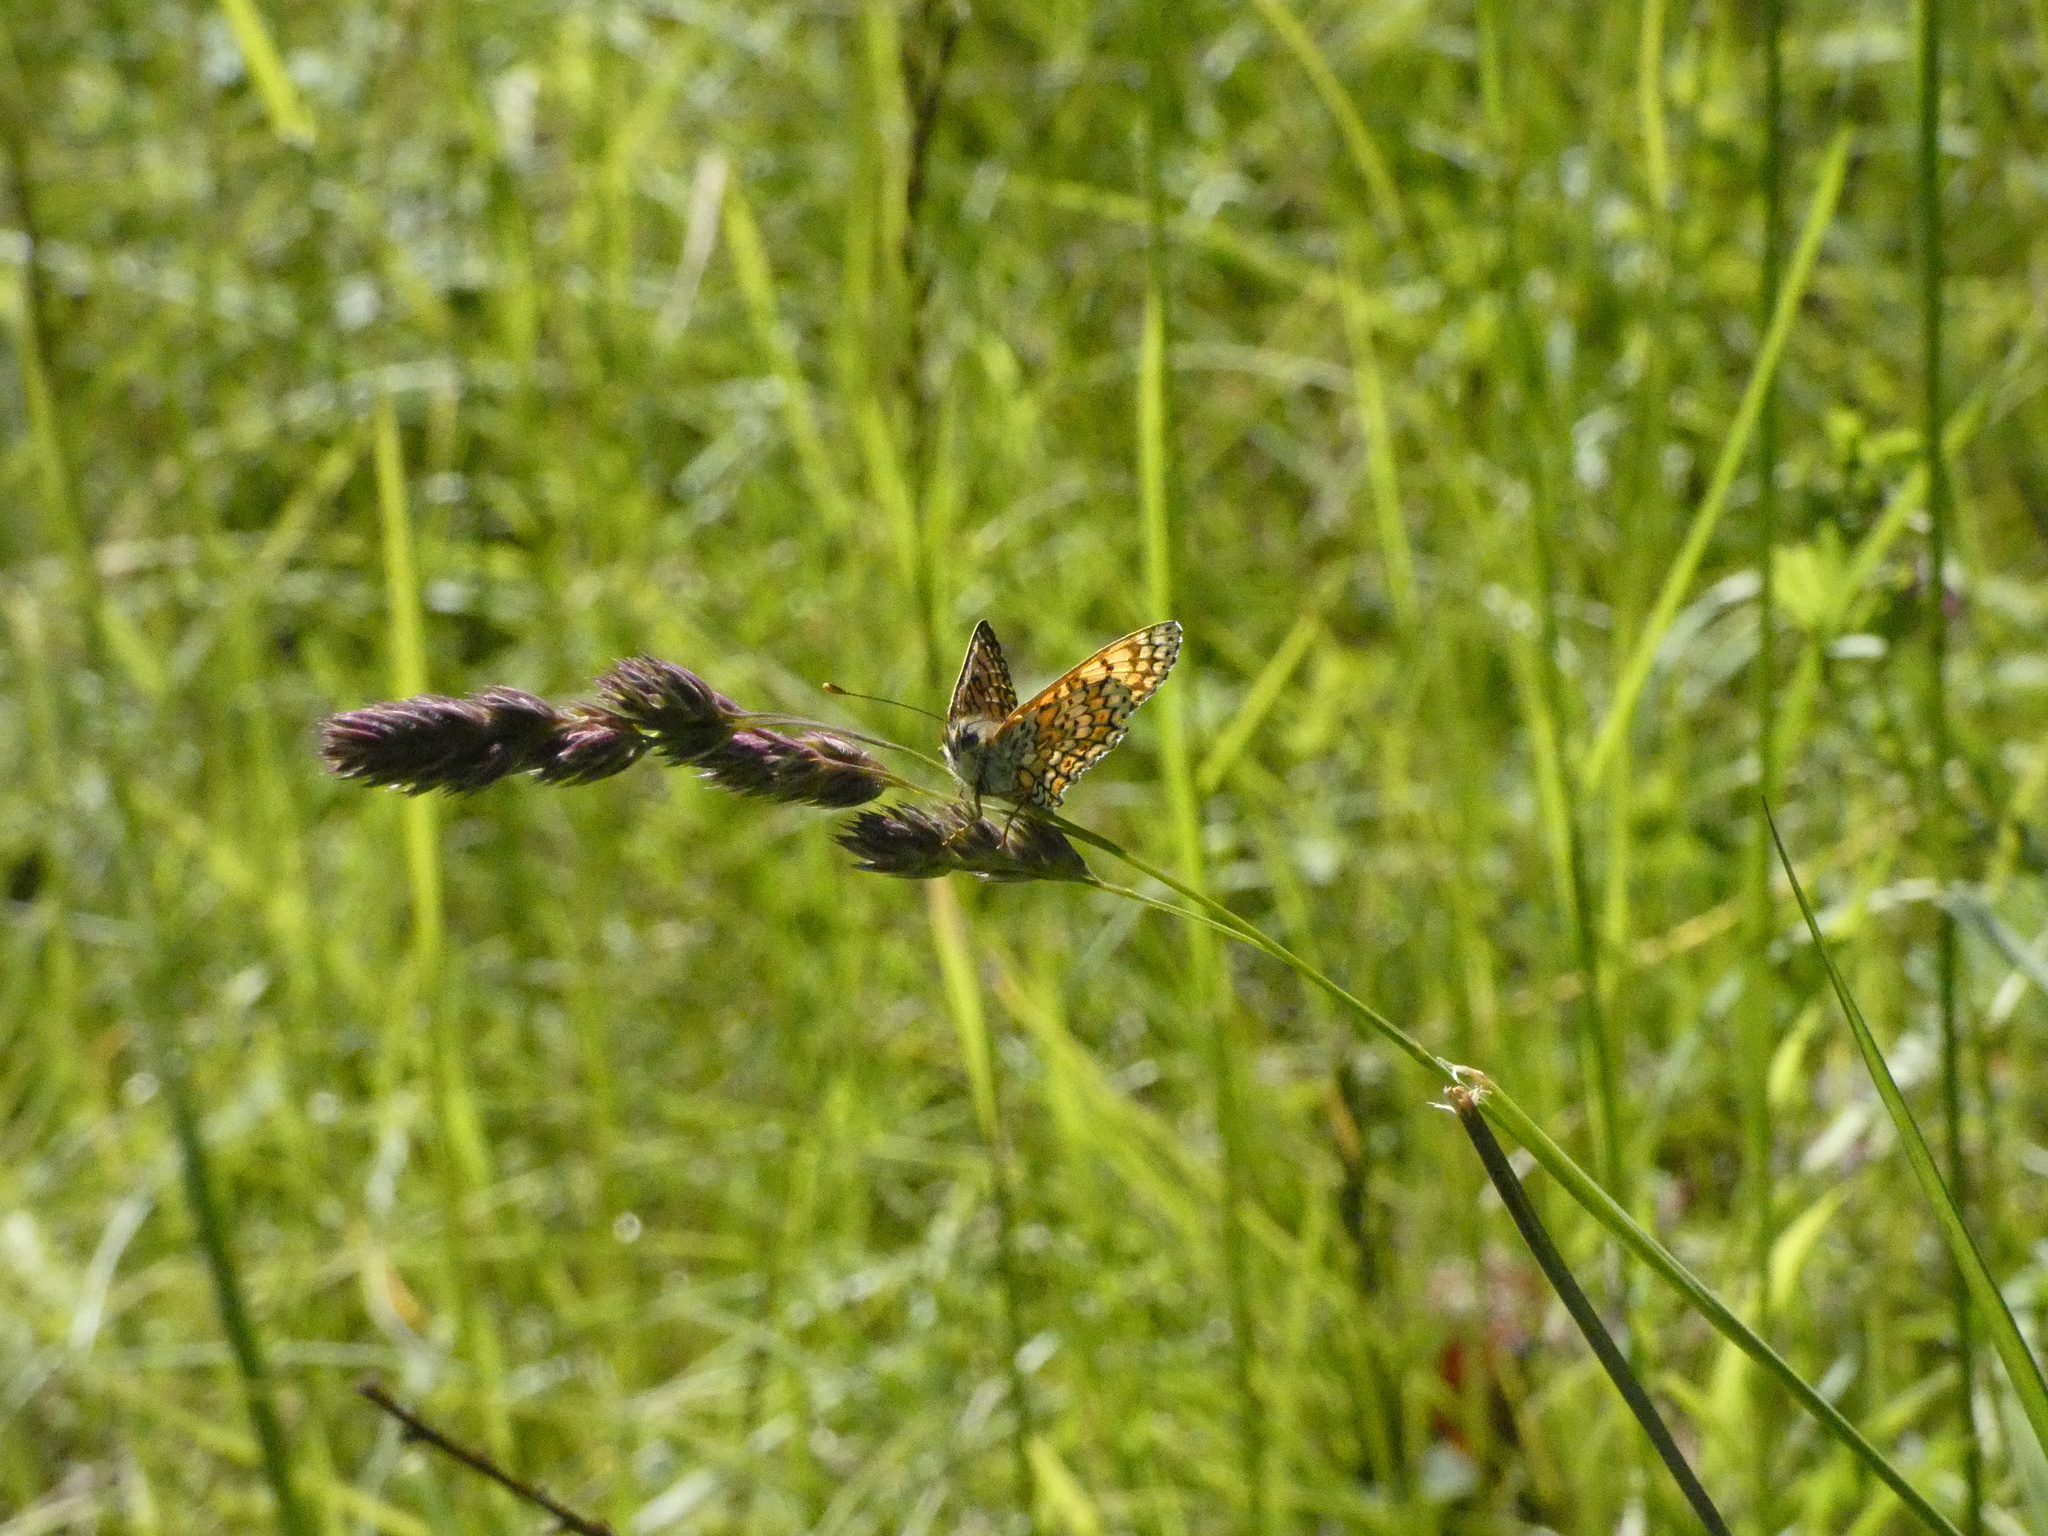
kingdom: Animalia
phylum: Arthropoda
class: Insecta
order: Lepidoptera
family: Nymphalidae
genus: Melitaea
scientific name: Melitaea cinxia
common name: Glanville fritillary
